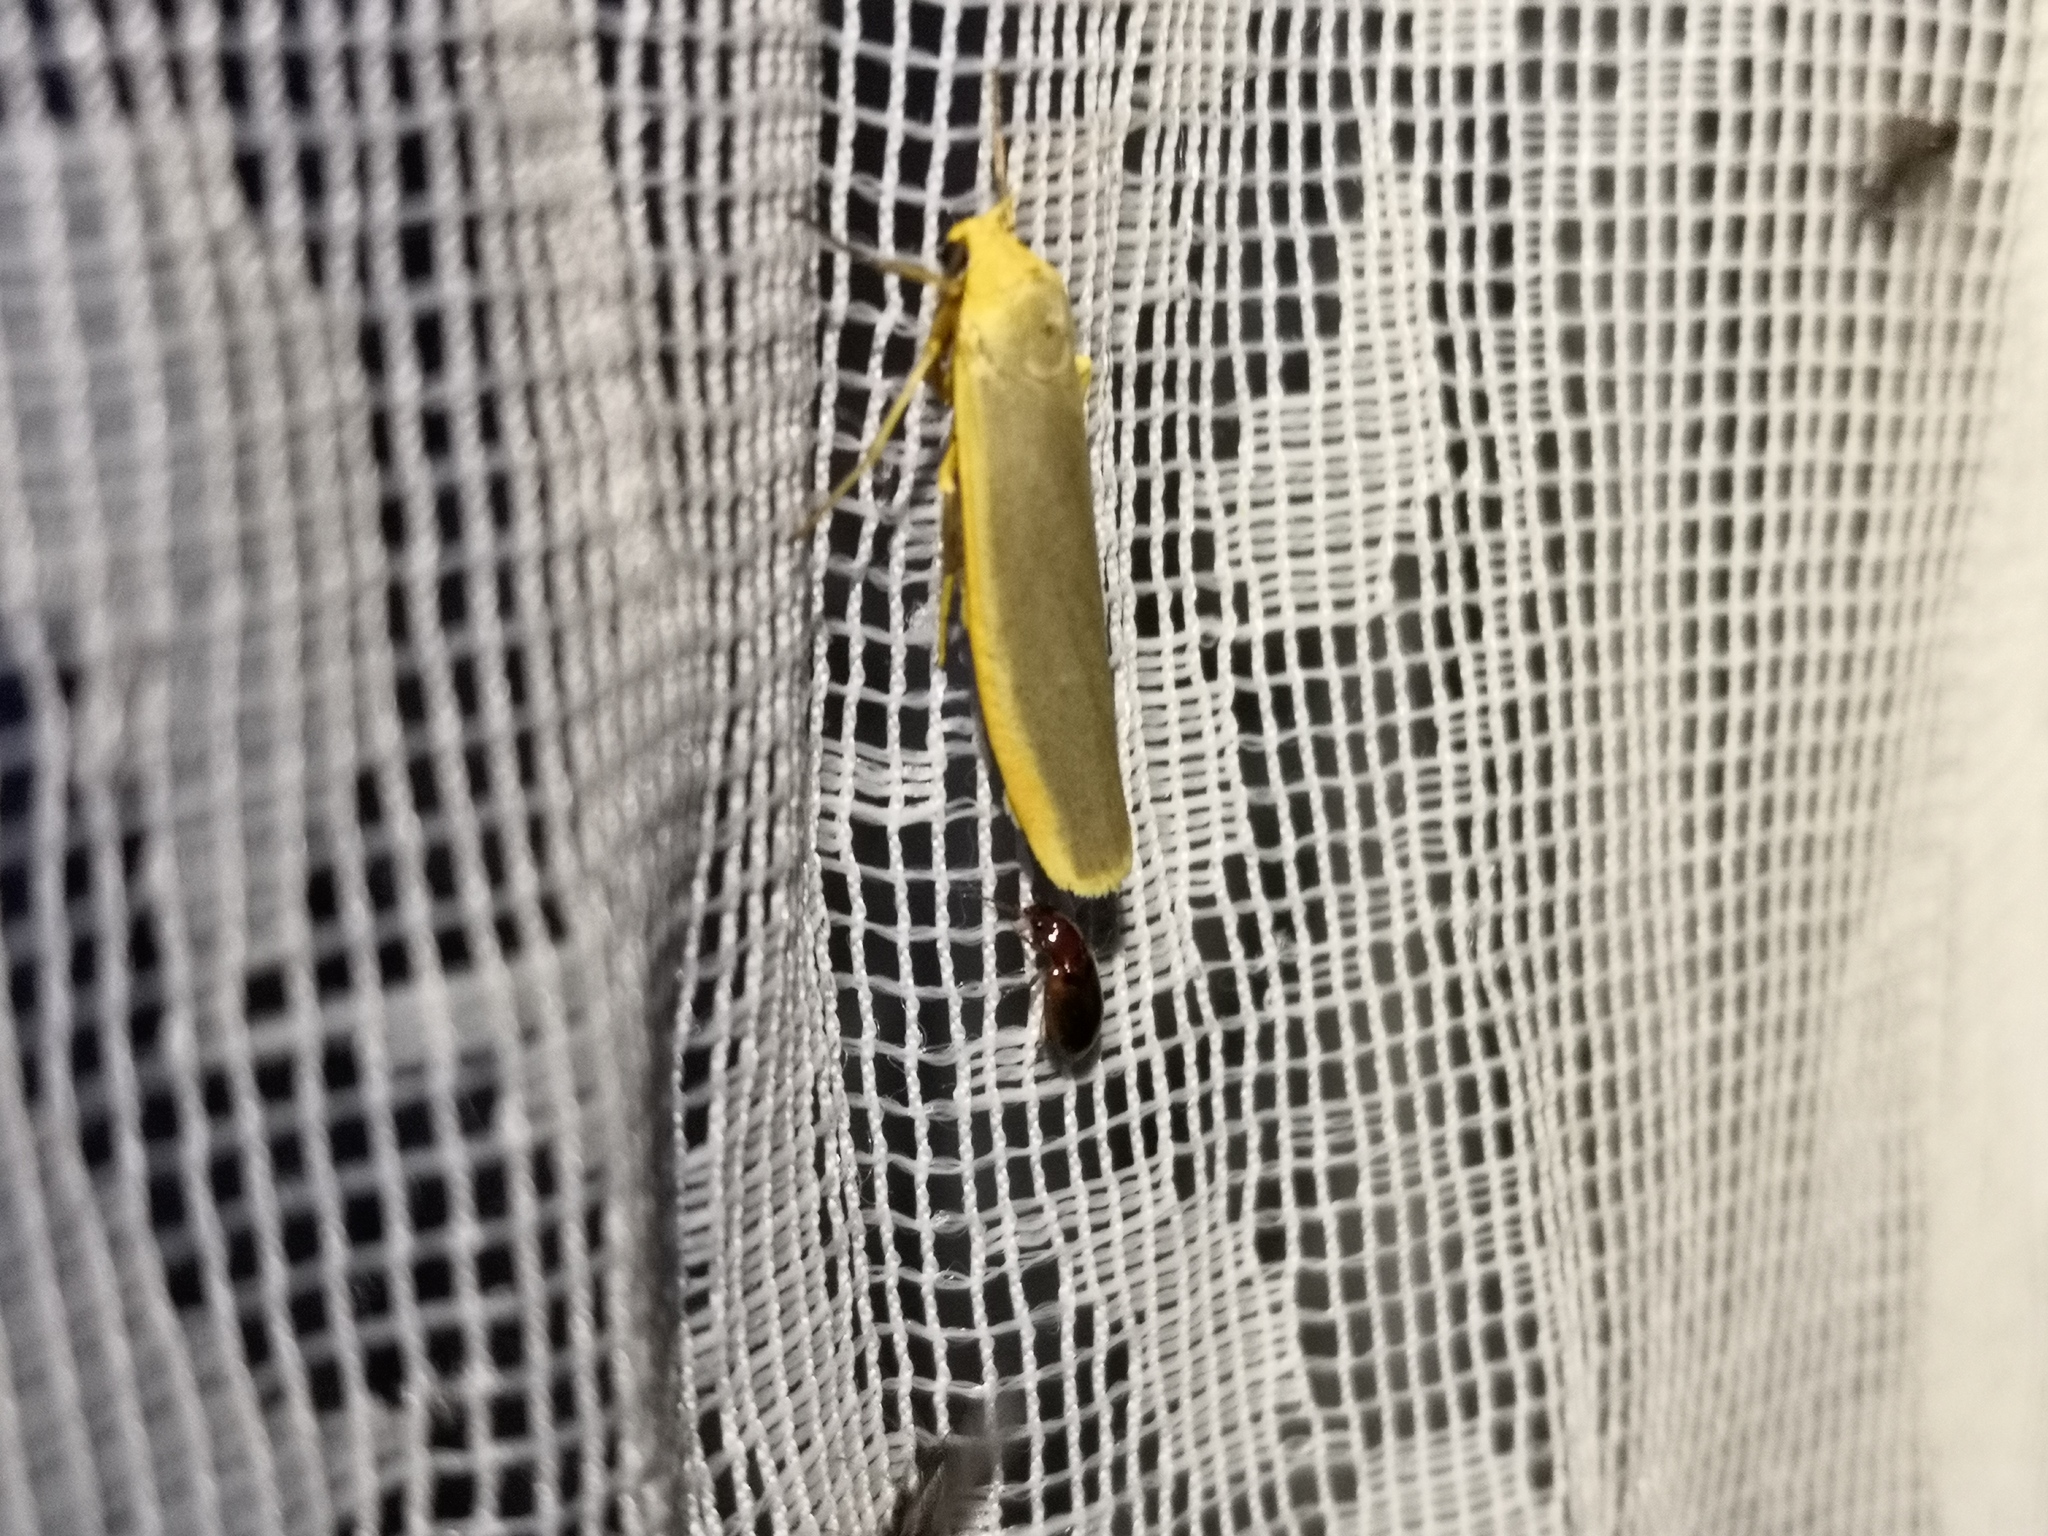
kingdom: Animalia
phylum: Arthropoda
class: Insecta
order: Lepidoptera
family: Erebidae
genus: Manulea
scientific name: Manulea complana
